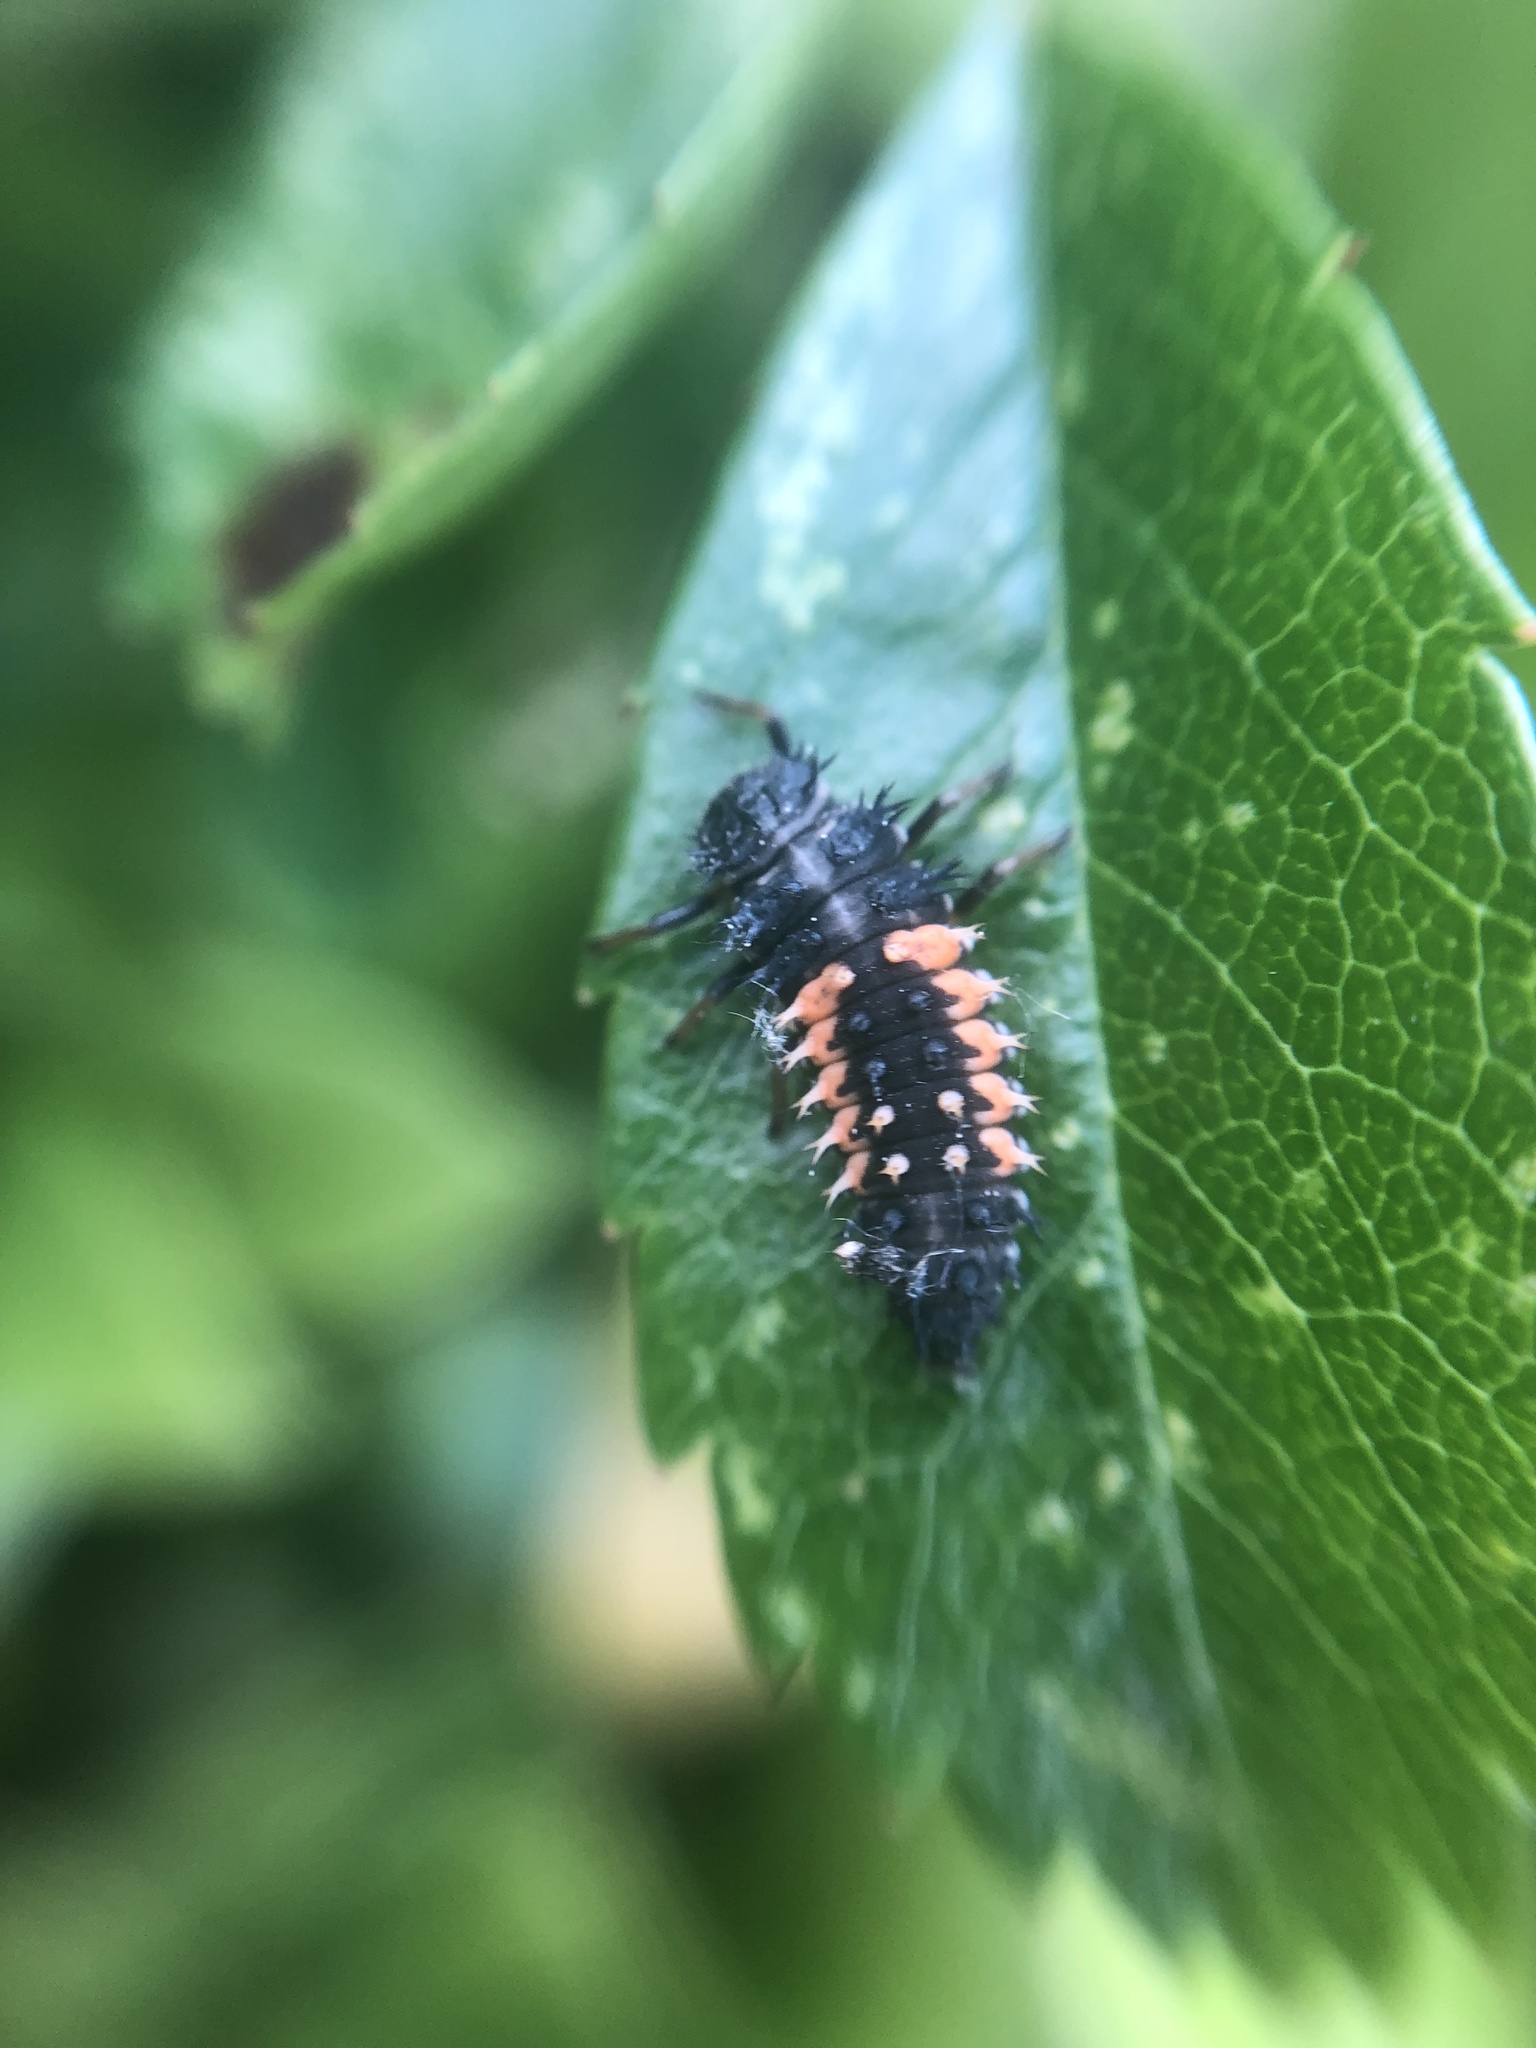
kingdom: Animalia
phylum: Arthropoda
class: Insecta
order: Coleoptera
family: Coccinellidae
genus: Harmonia
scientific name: Harmonia axyridis
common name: Harlequin ladybird
